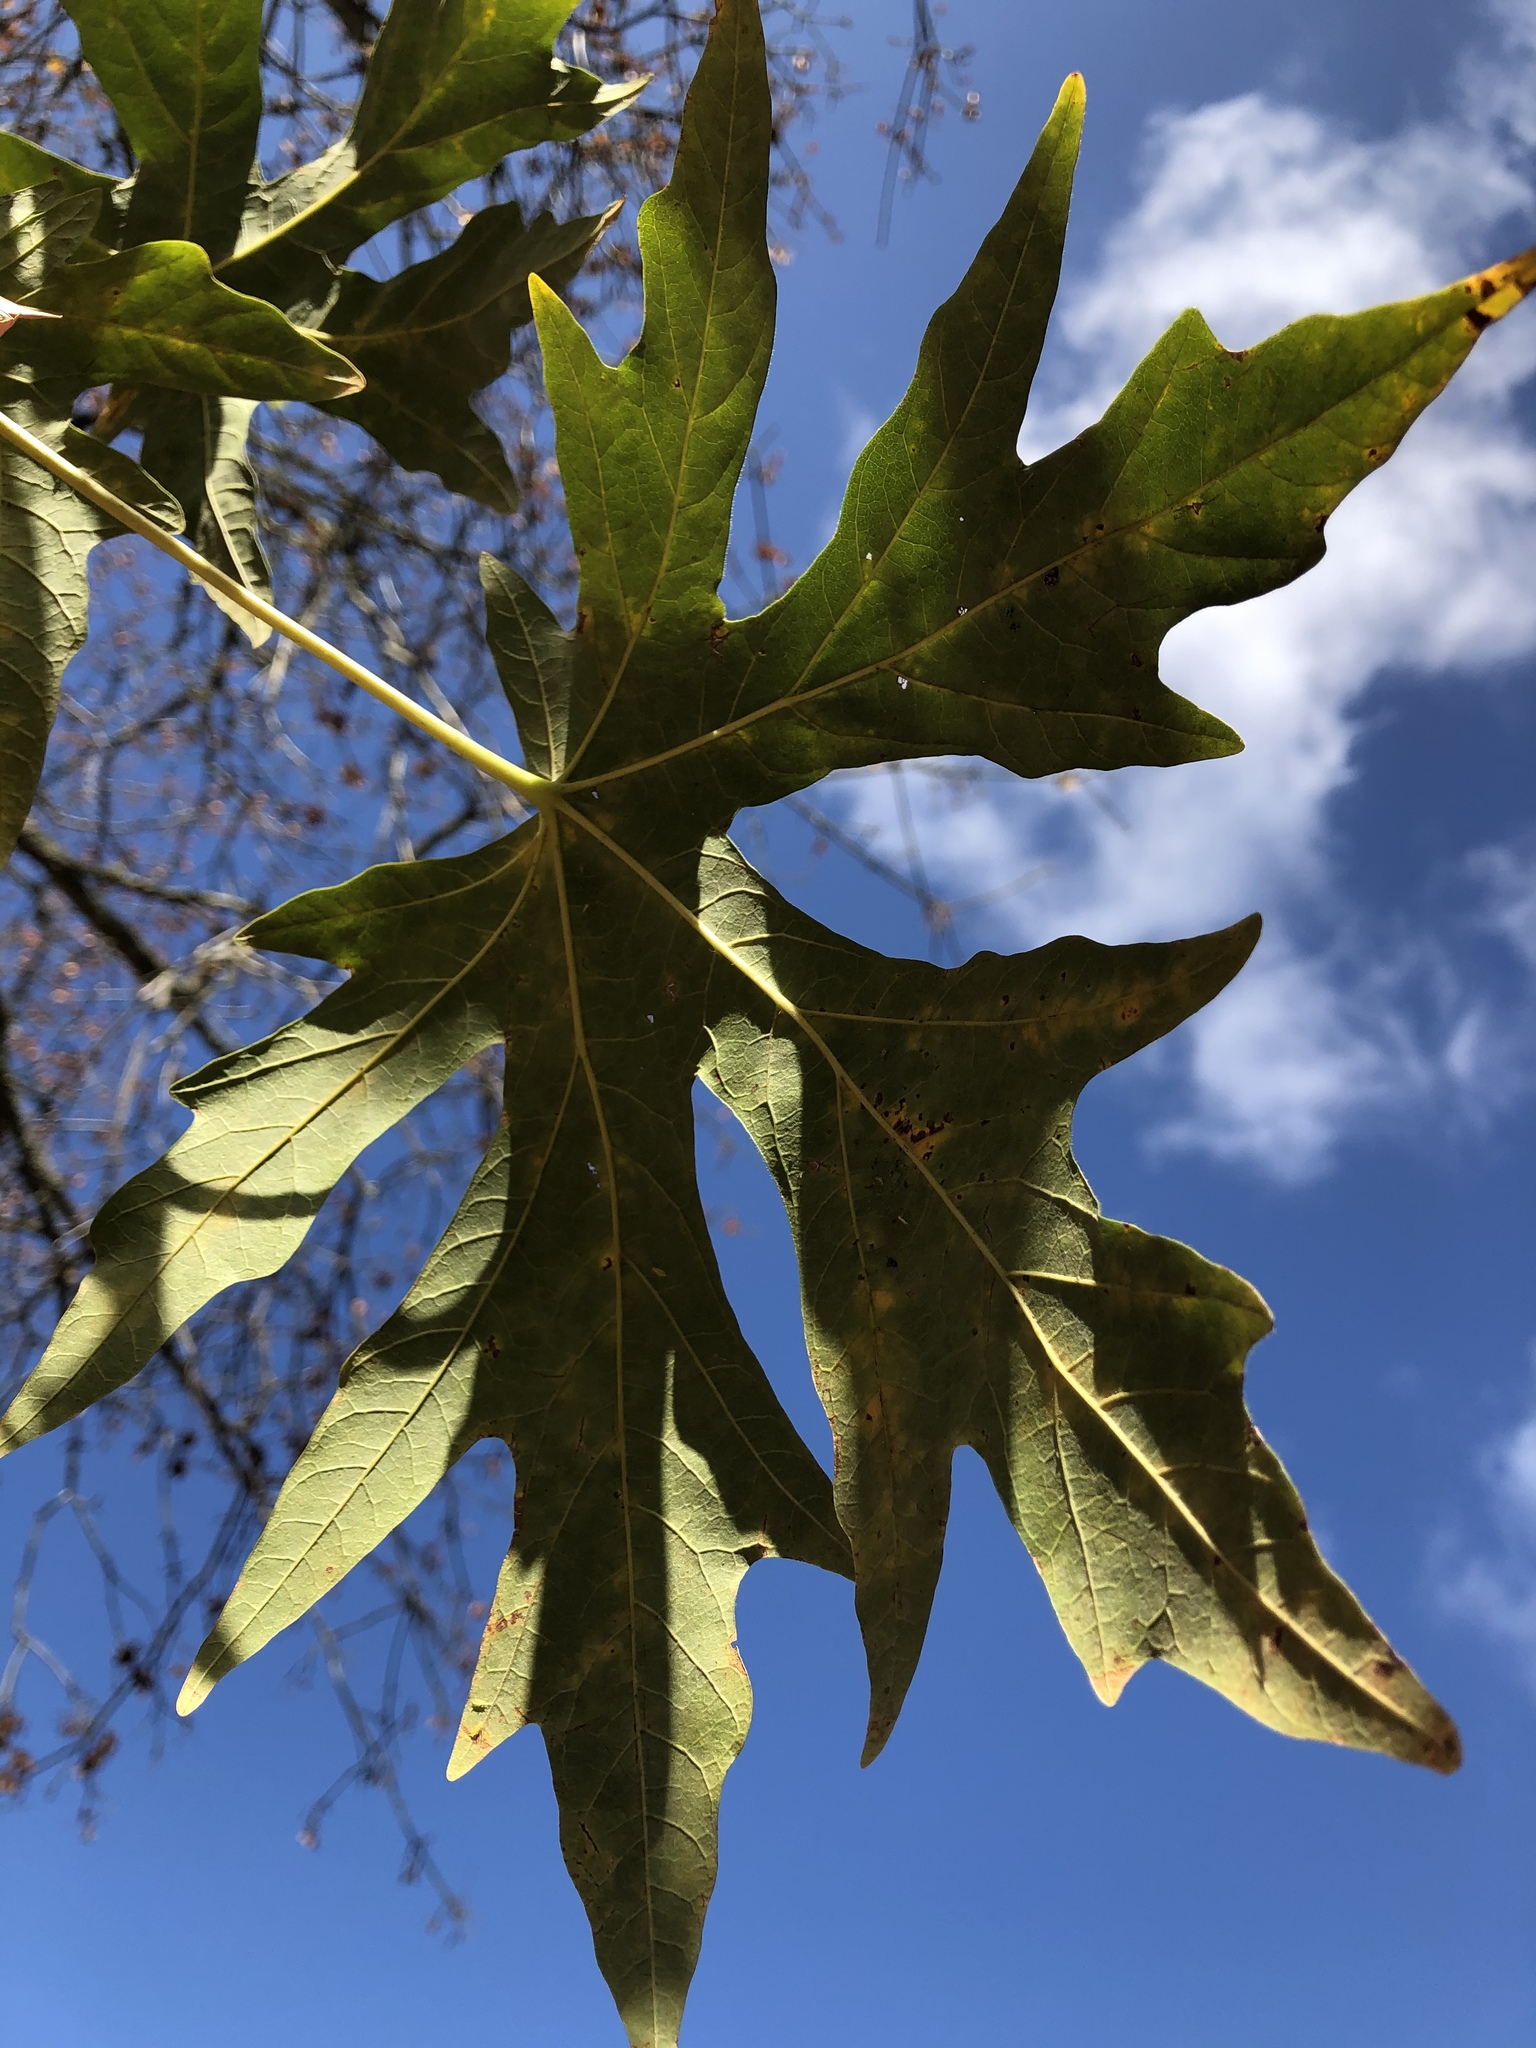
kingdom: Plantae
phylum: Tracheophyta
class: Magnoliopsida
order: Sapindales
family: Sapindaceae
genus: Acer
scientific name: Acer macrophyllum
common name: Oregon maple
